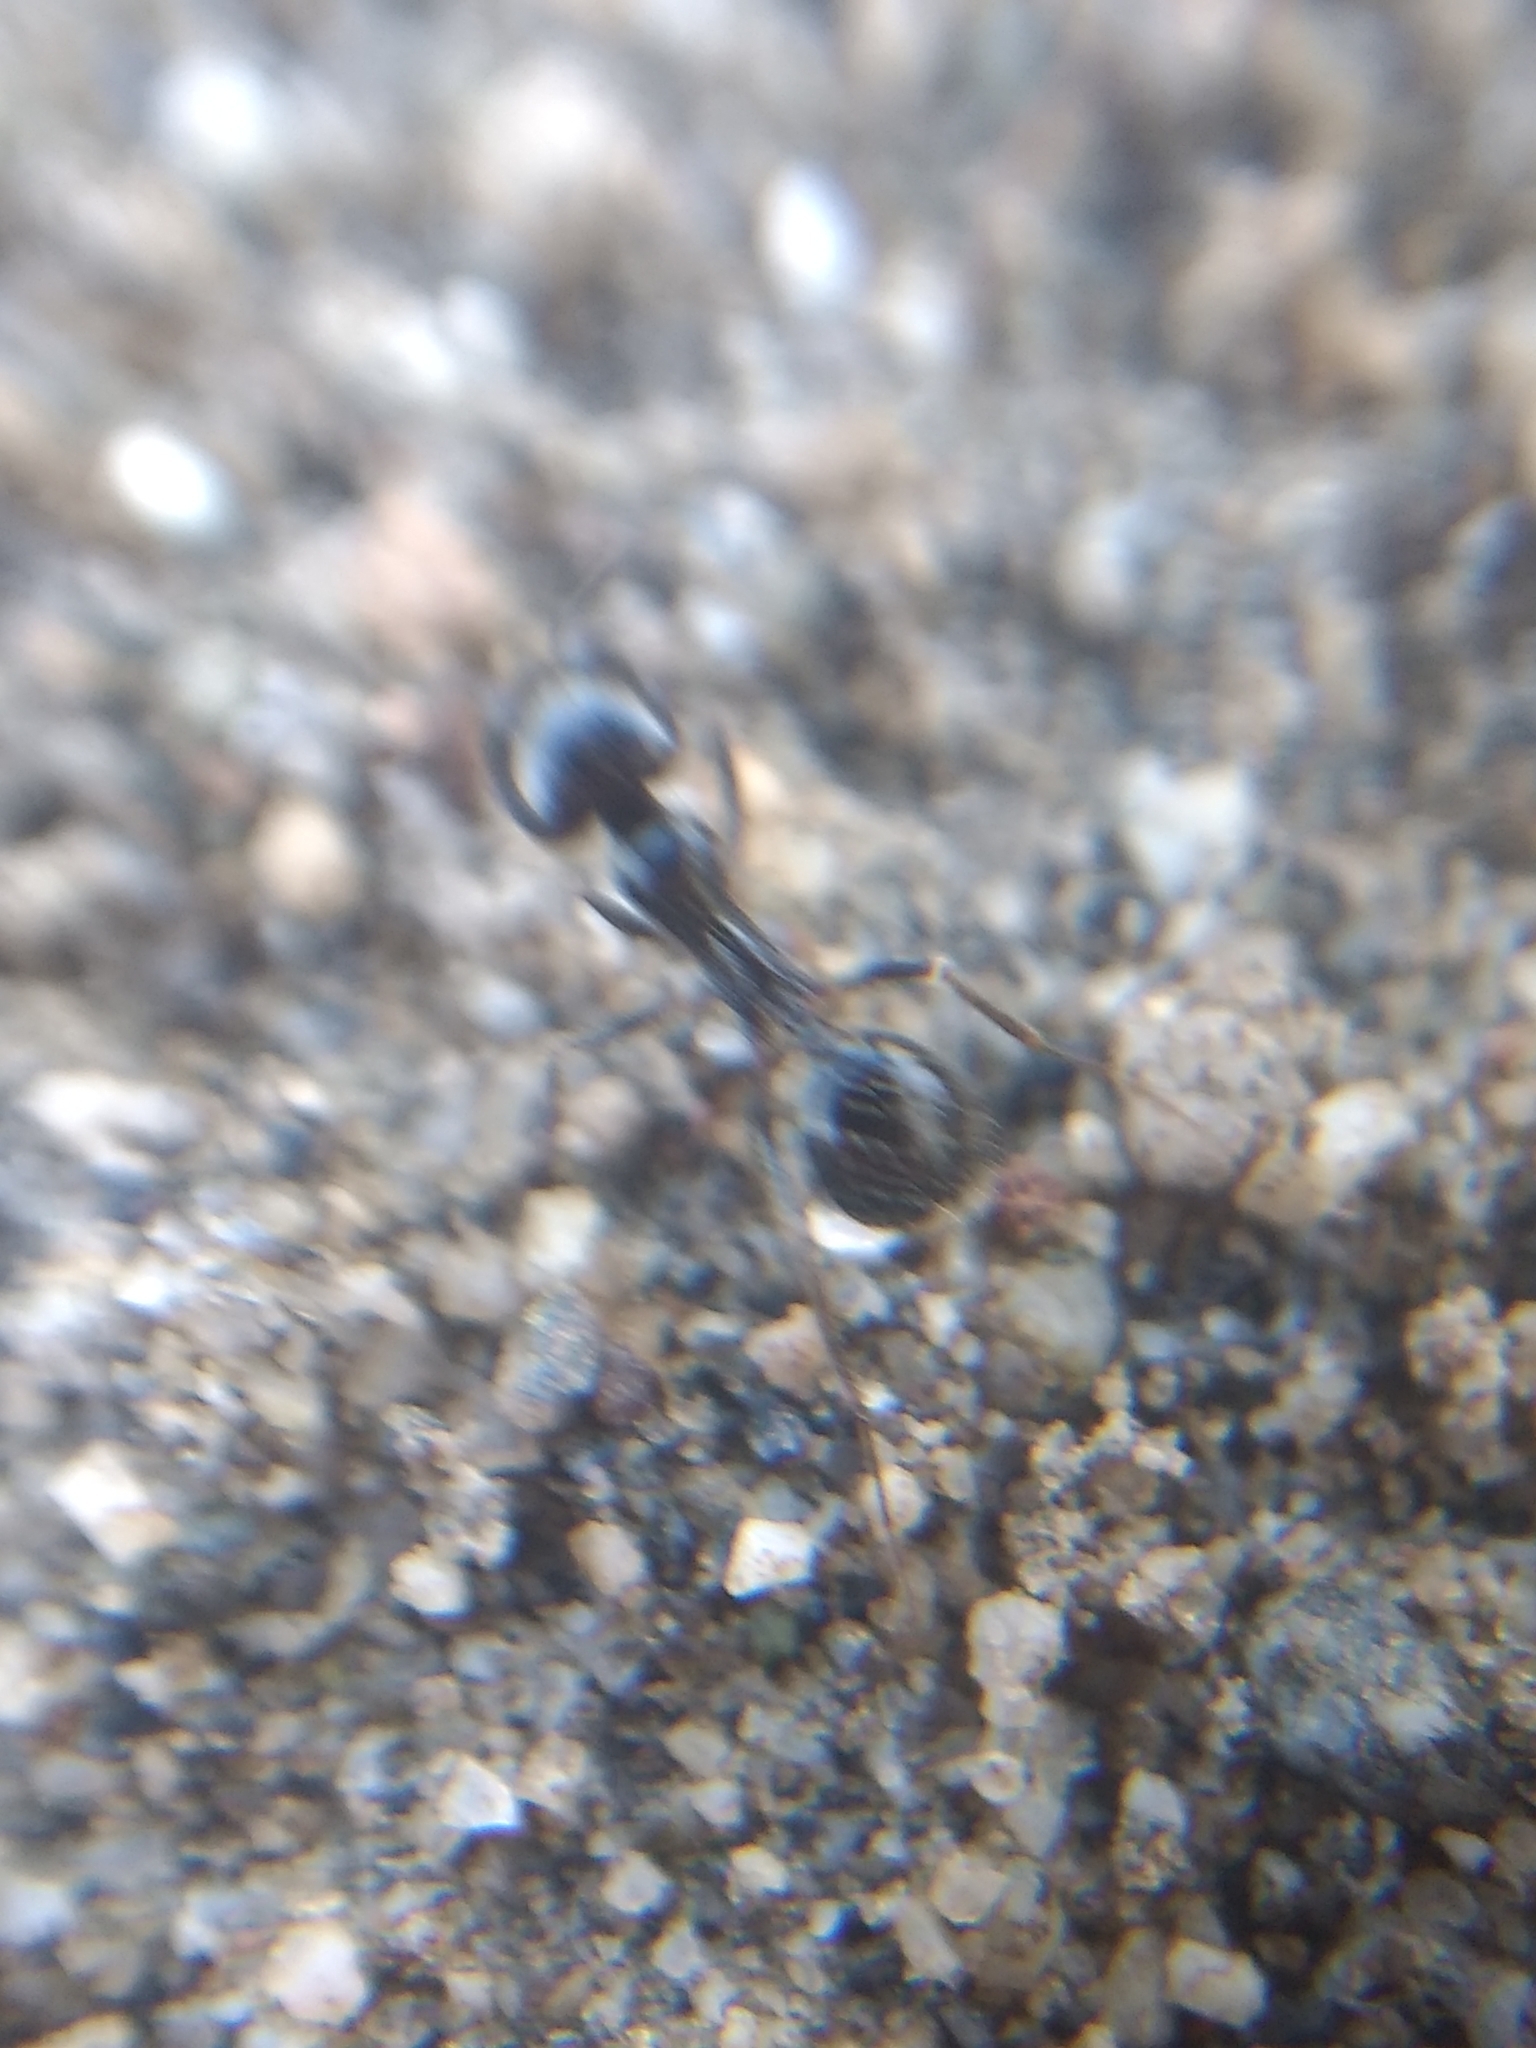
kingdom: Animalia
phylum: Arthropoda
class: Insecta
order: Hymenoptera
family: Formicidae
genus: Messor
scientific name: Messor pergandei
